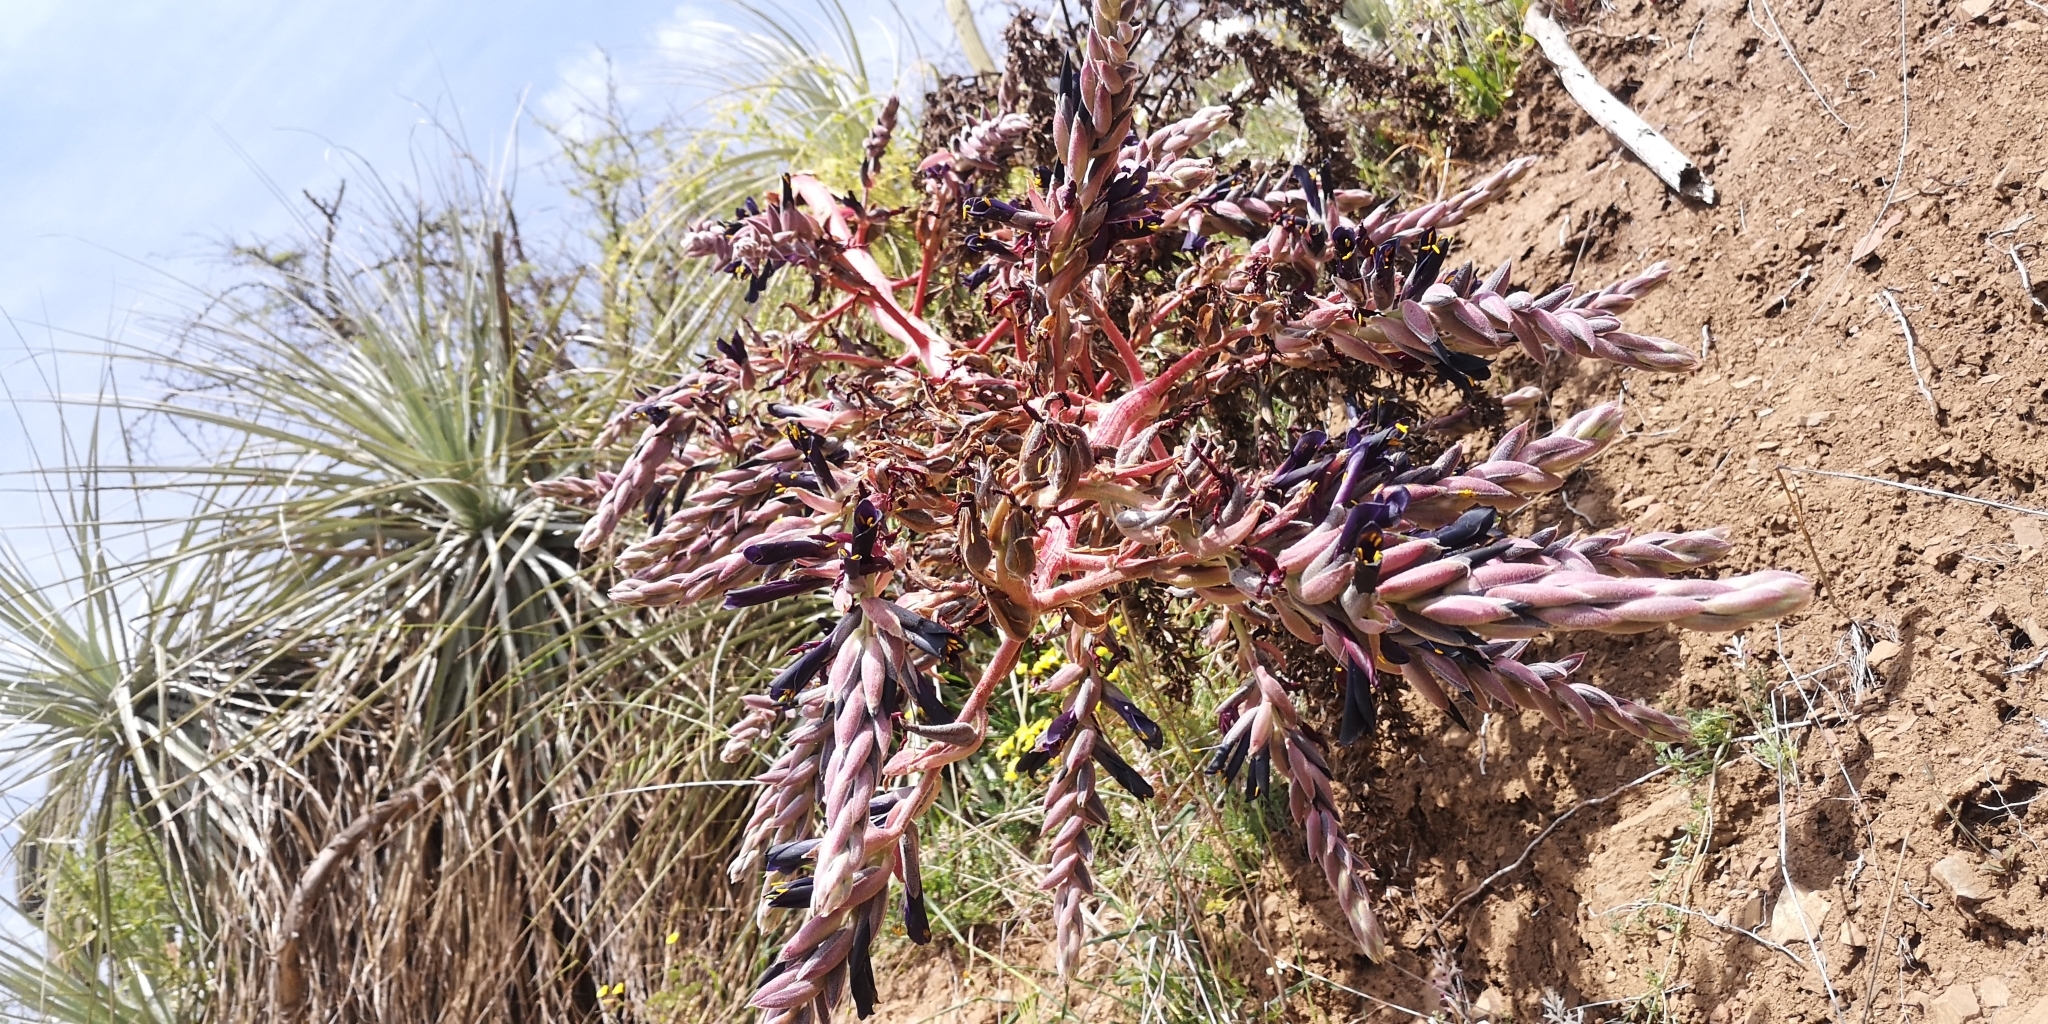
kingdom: Plantae
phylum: Tracheophyta
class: Liliopsida
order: Poales
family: Bromeliaceae
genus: Puya
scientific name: Puya coerulea
